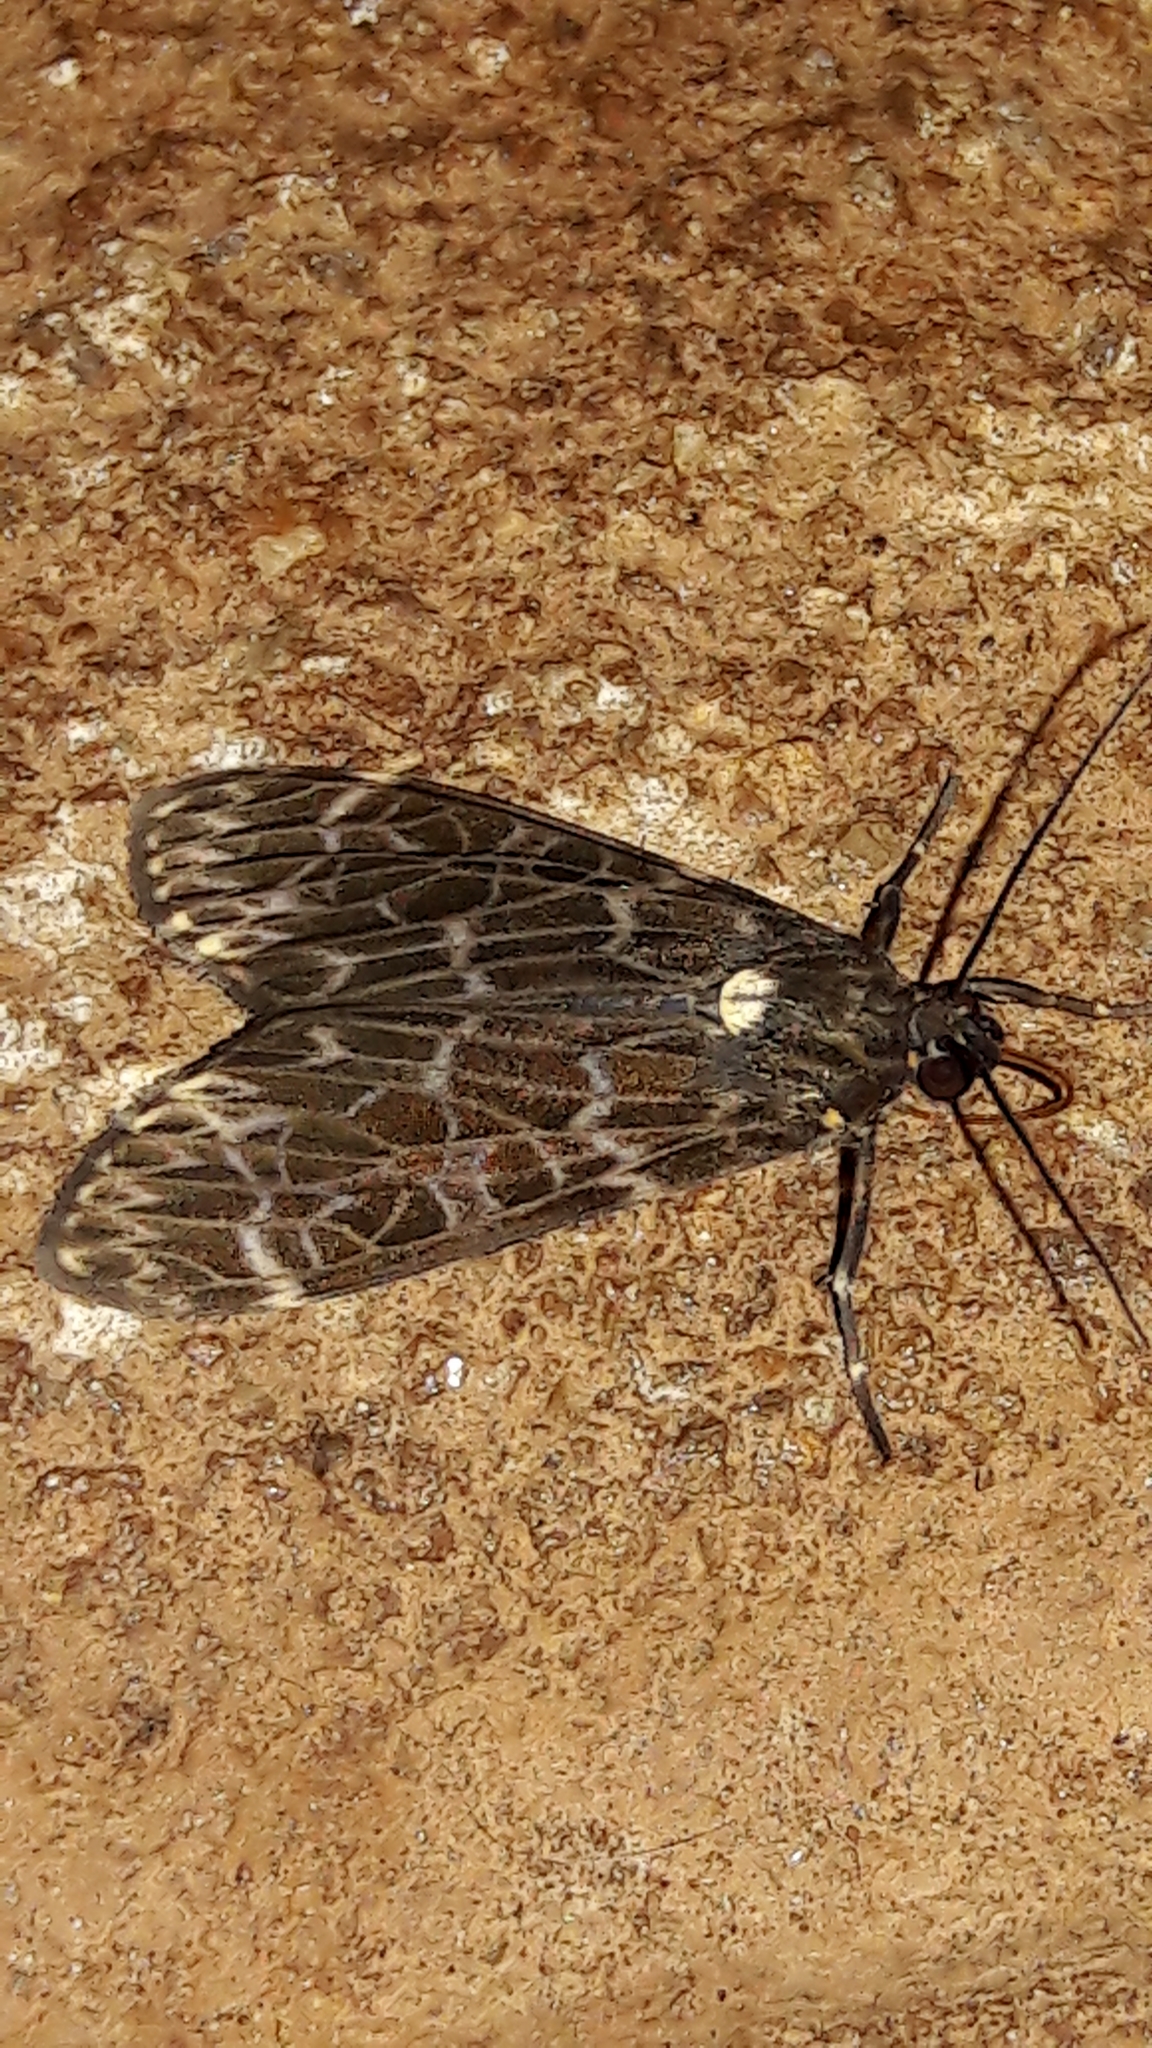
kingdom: Animalia
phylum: Arthropoda
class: Insecta
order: Lepidoptera
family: Erebidae
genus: Eucereon
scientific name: Eucereon sylvius
